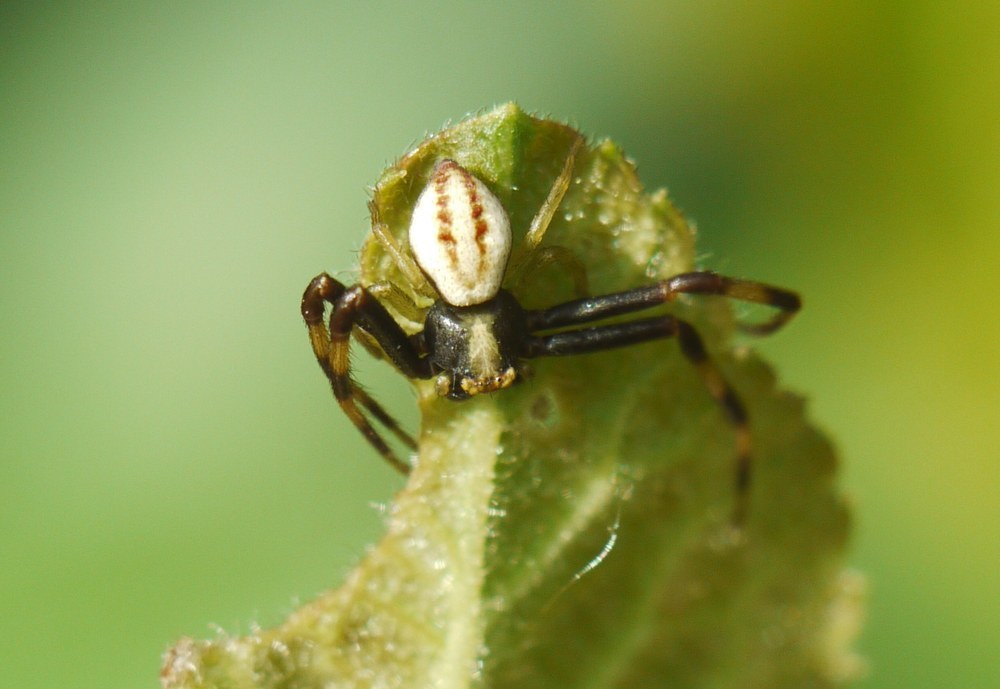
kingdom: Animalia
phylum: Arthropoda
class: Arachnida
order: Araneae
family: Thomisidae
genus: Misumena
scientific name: Misumena vatia
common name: Goldenrod crab spider
